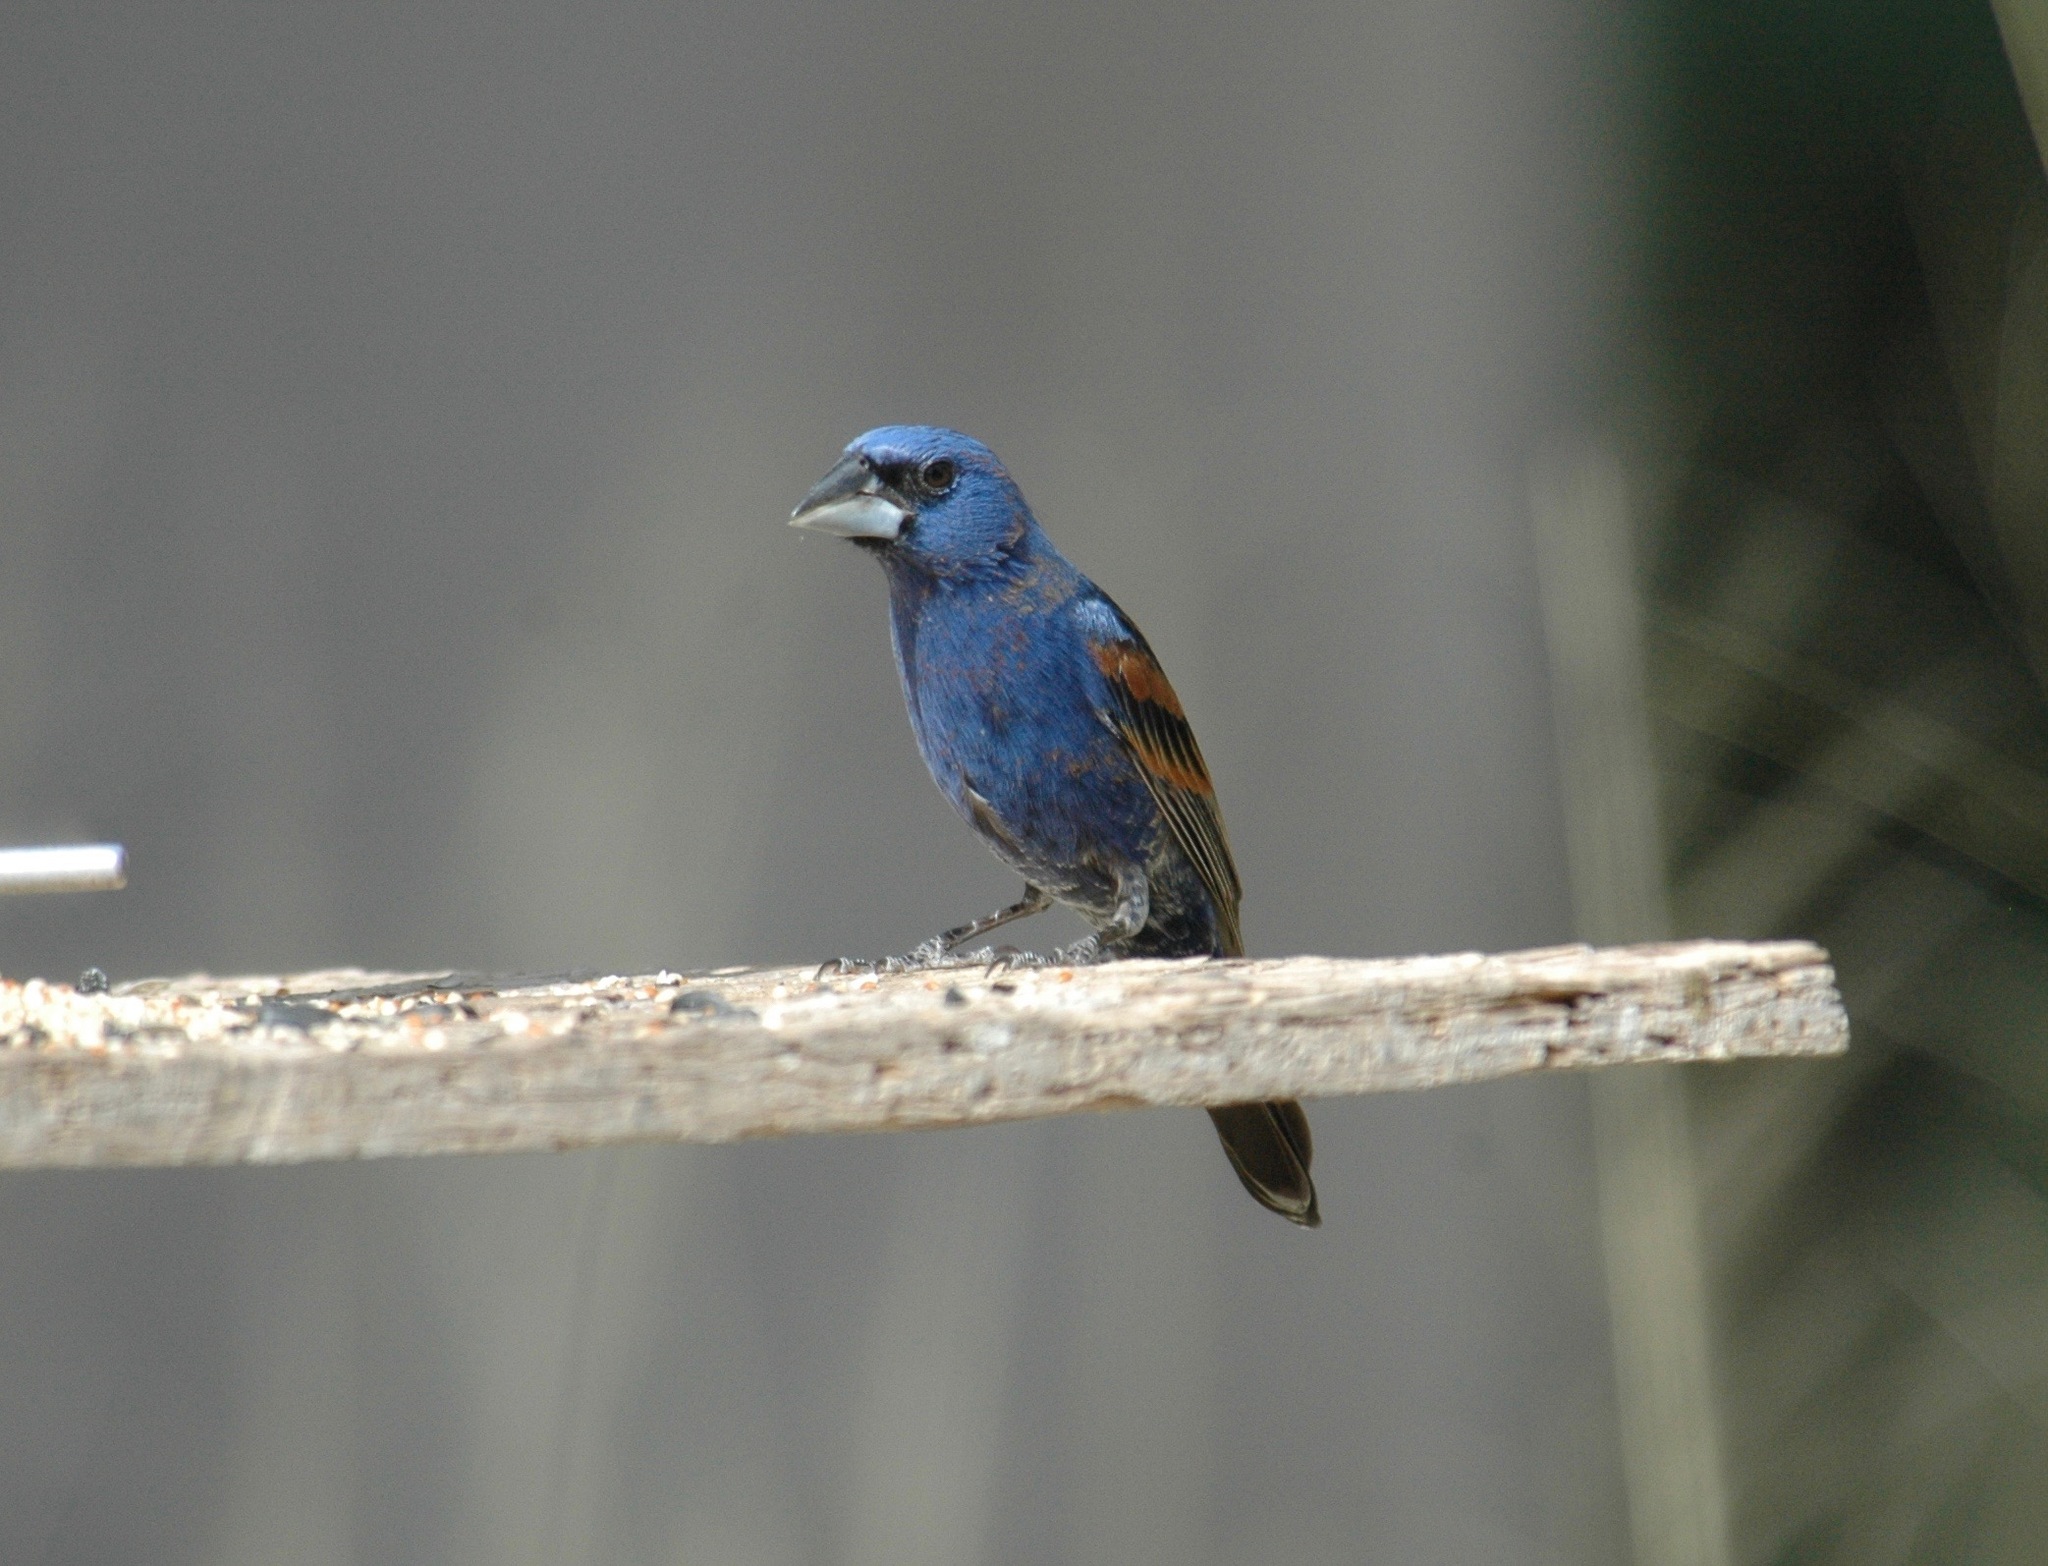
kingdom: Animalia
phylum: Chordata
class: Aves
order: Passeriformes
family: Cardinalidae
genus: Passerina
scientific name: Passerina caerulea
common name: Blue grosbeak
